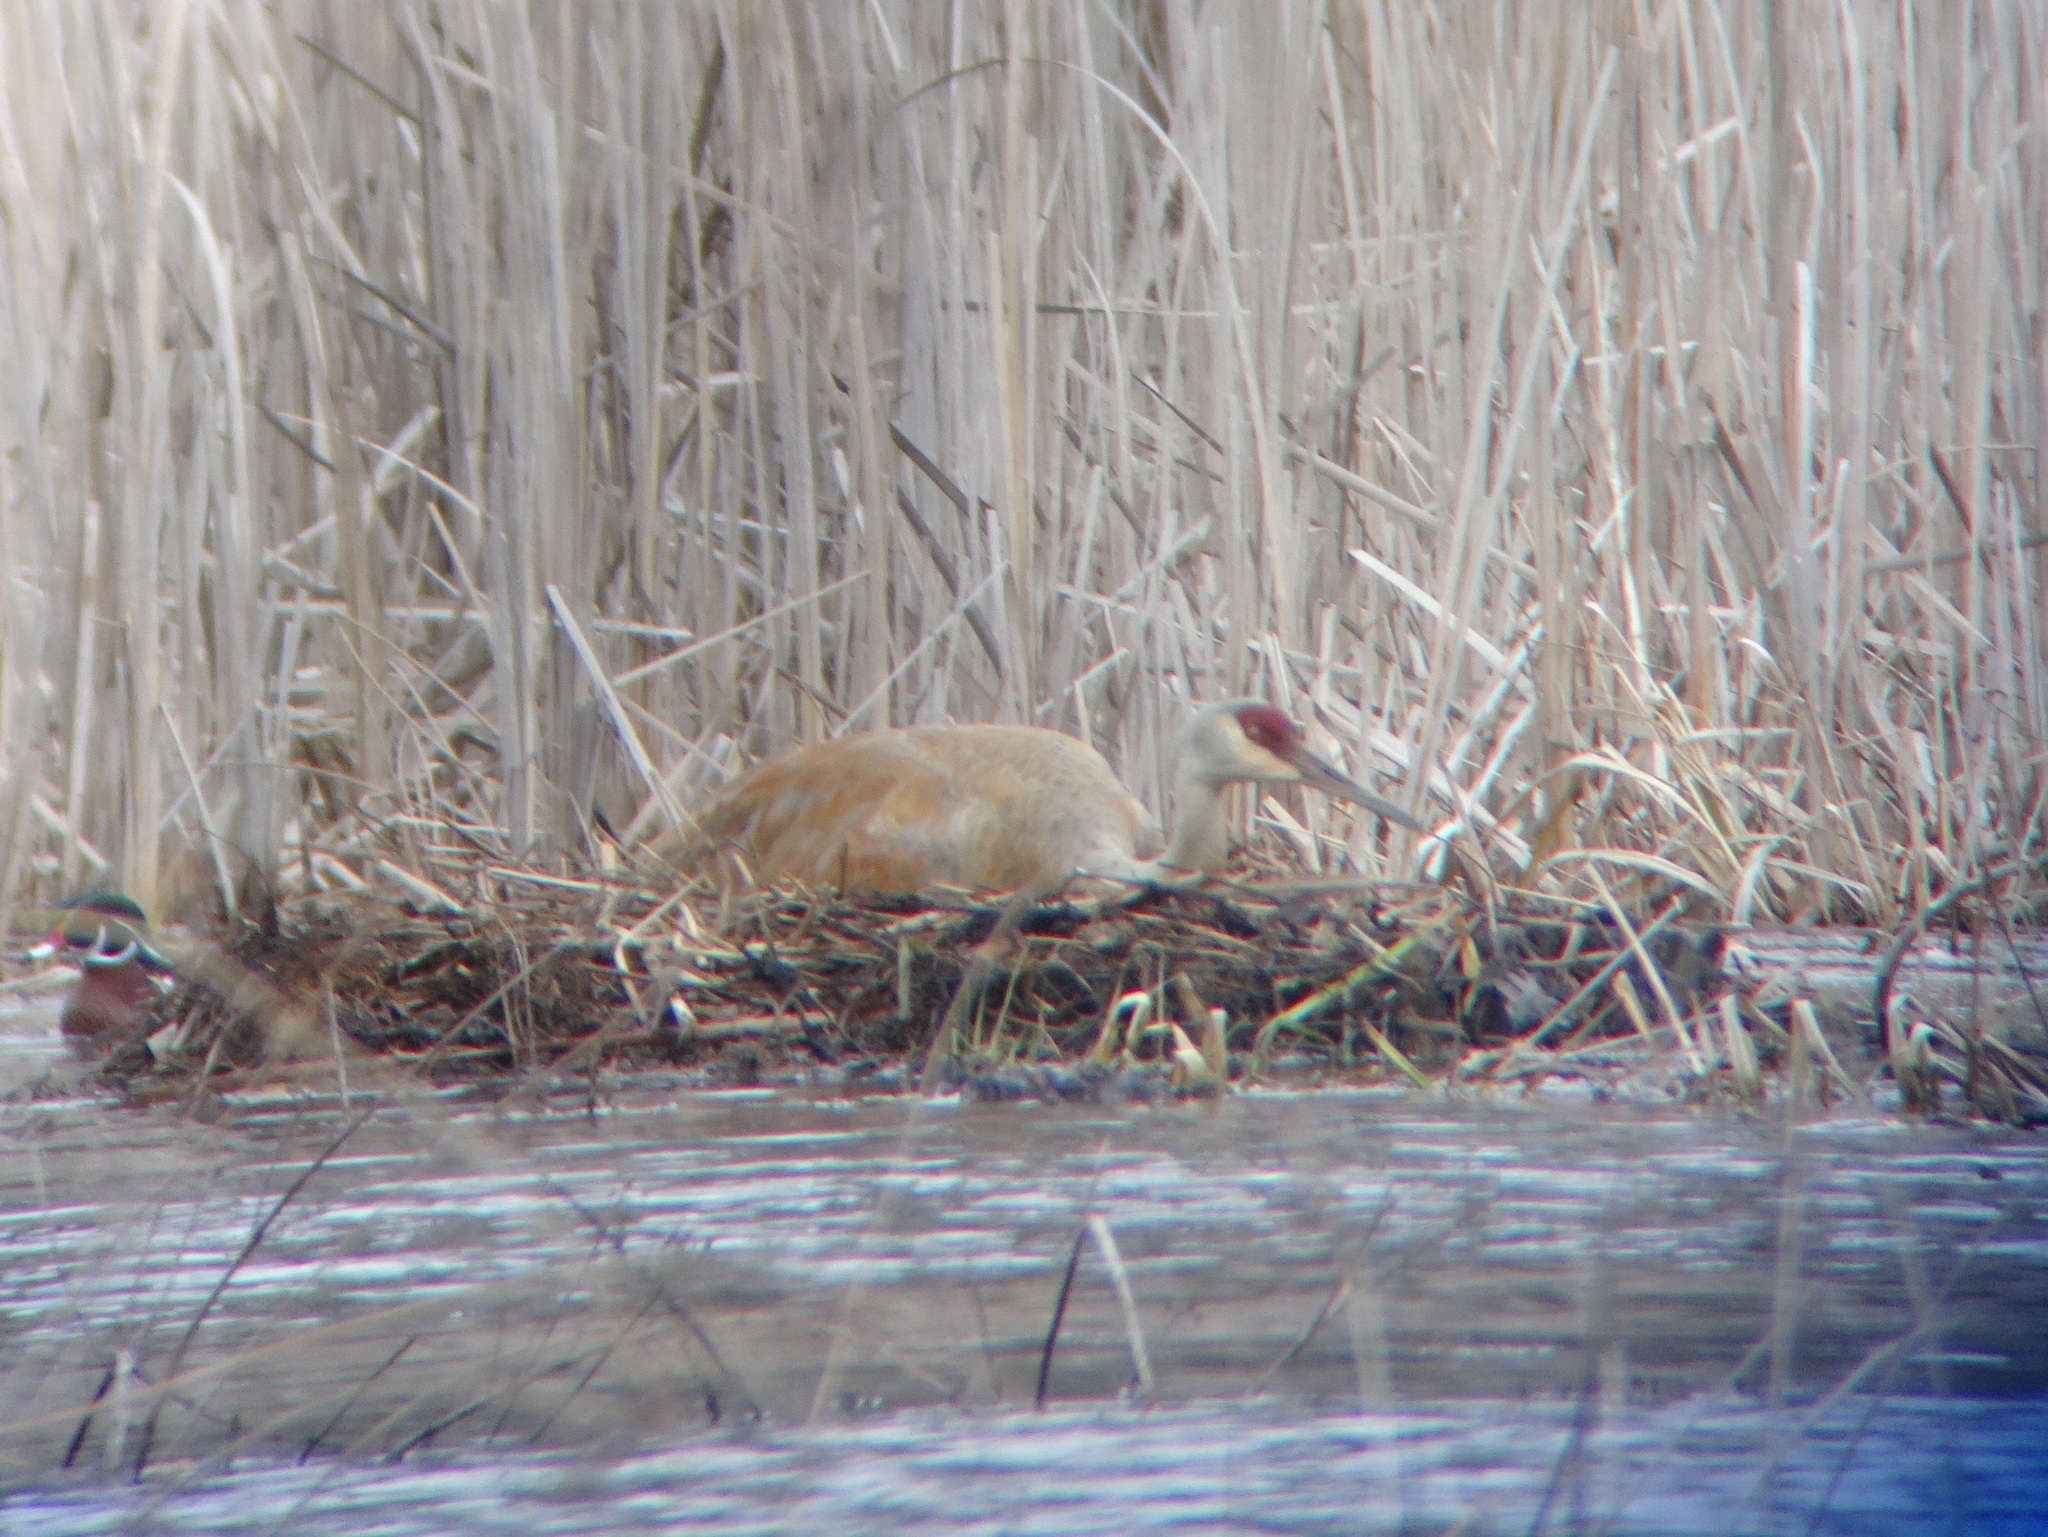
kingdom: Animalia
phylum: Chordata
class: Aves
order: Gruiformes
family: Gruidae
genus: Grus
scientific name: Grus canadensis
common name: Sandhill crane
